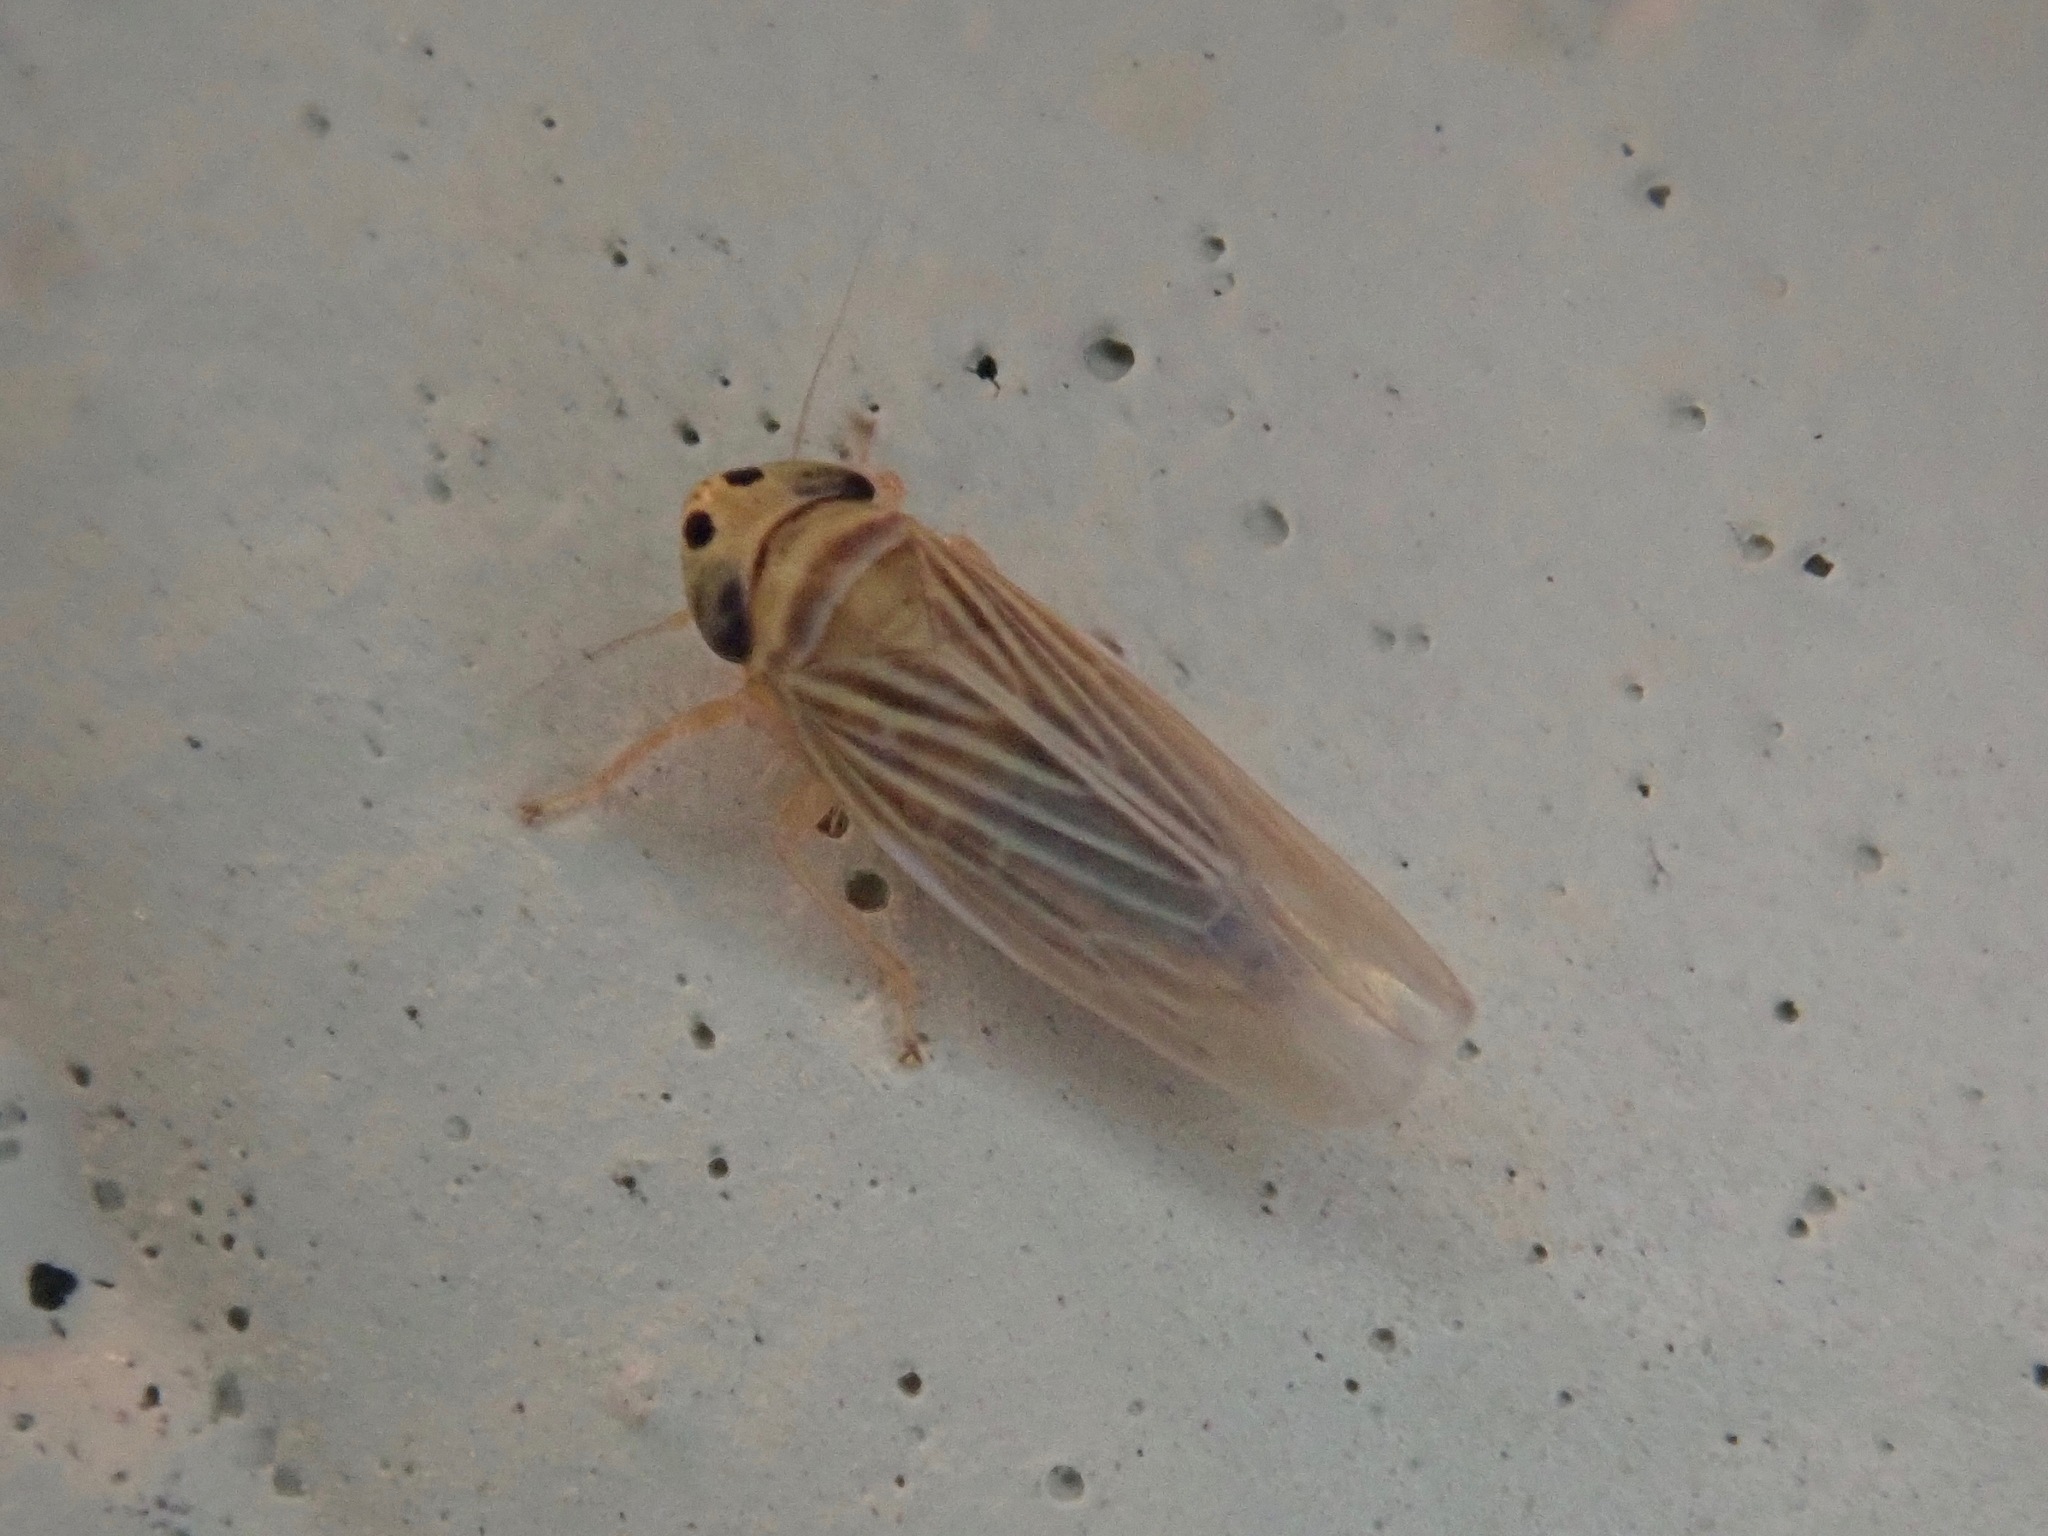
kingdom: Animalia
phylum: Arthropoda
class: Insecta
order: Hemiptera
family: Cicadellidae
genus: Graminella
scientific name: Graminella villicus
